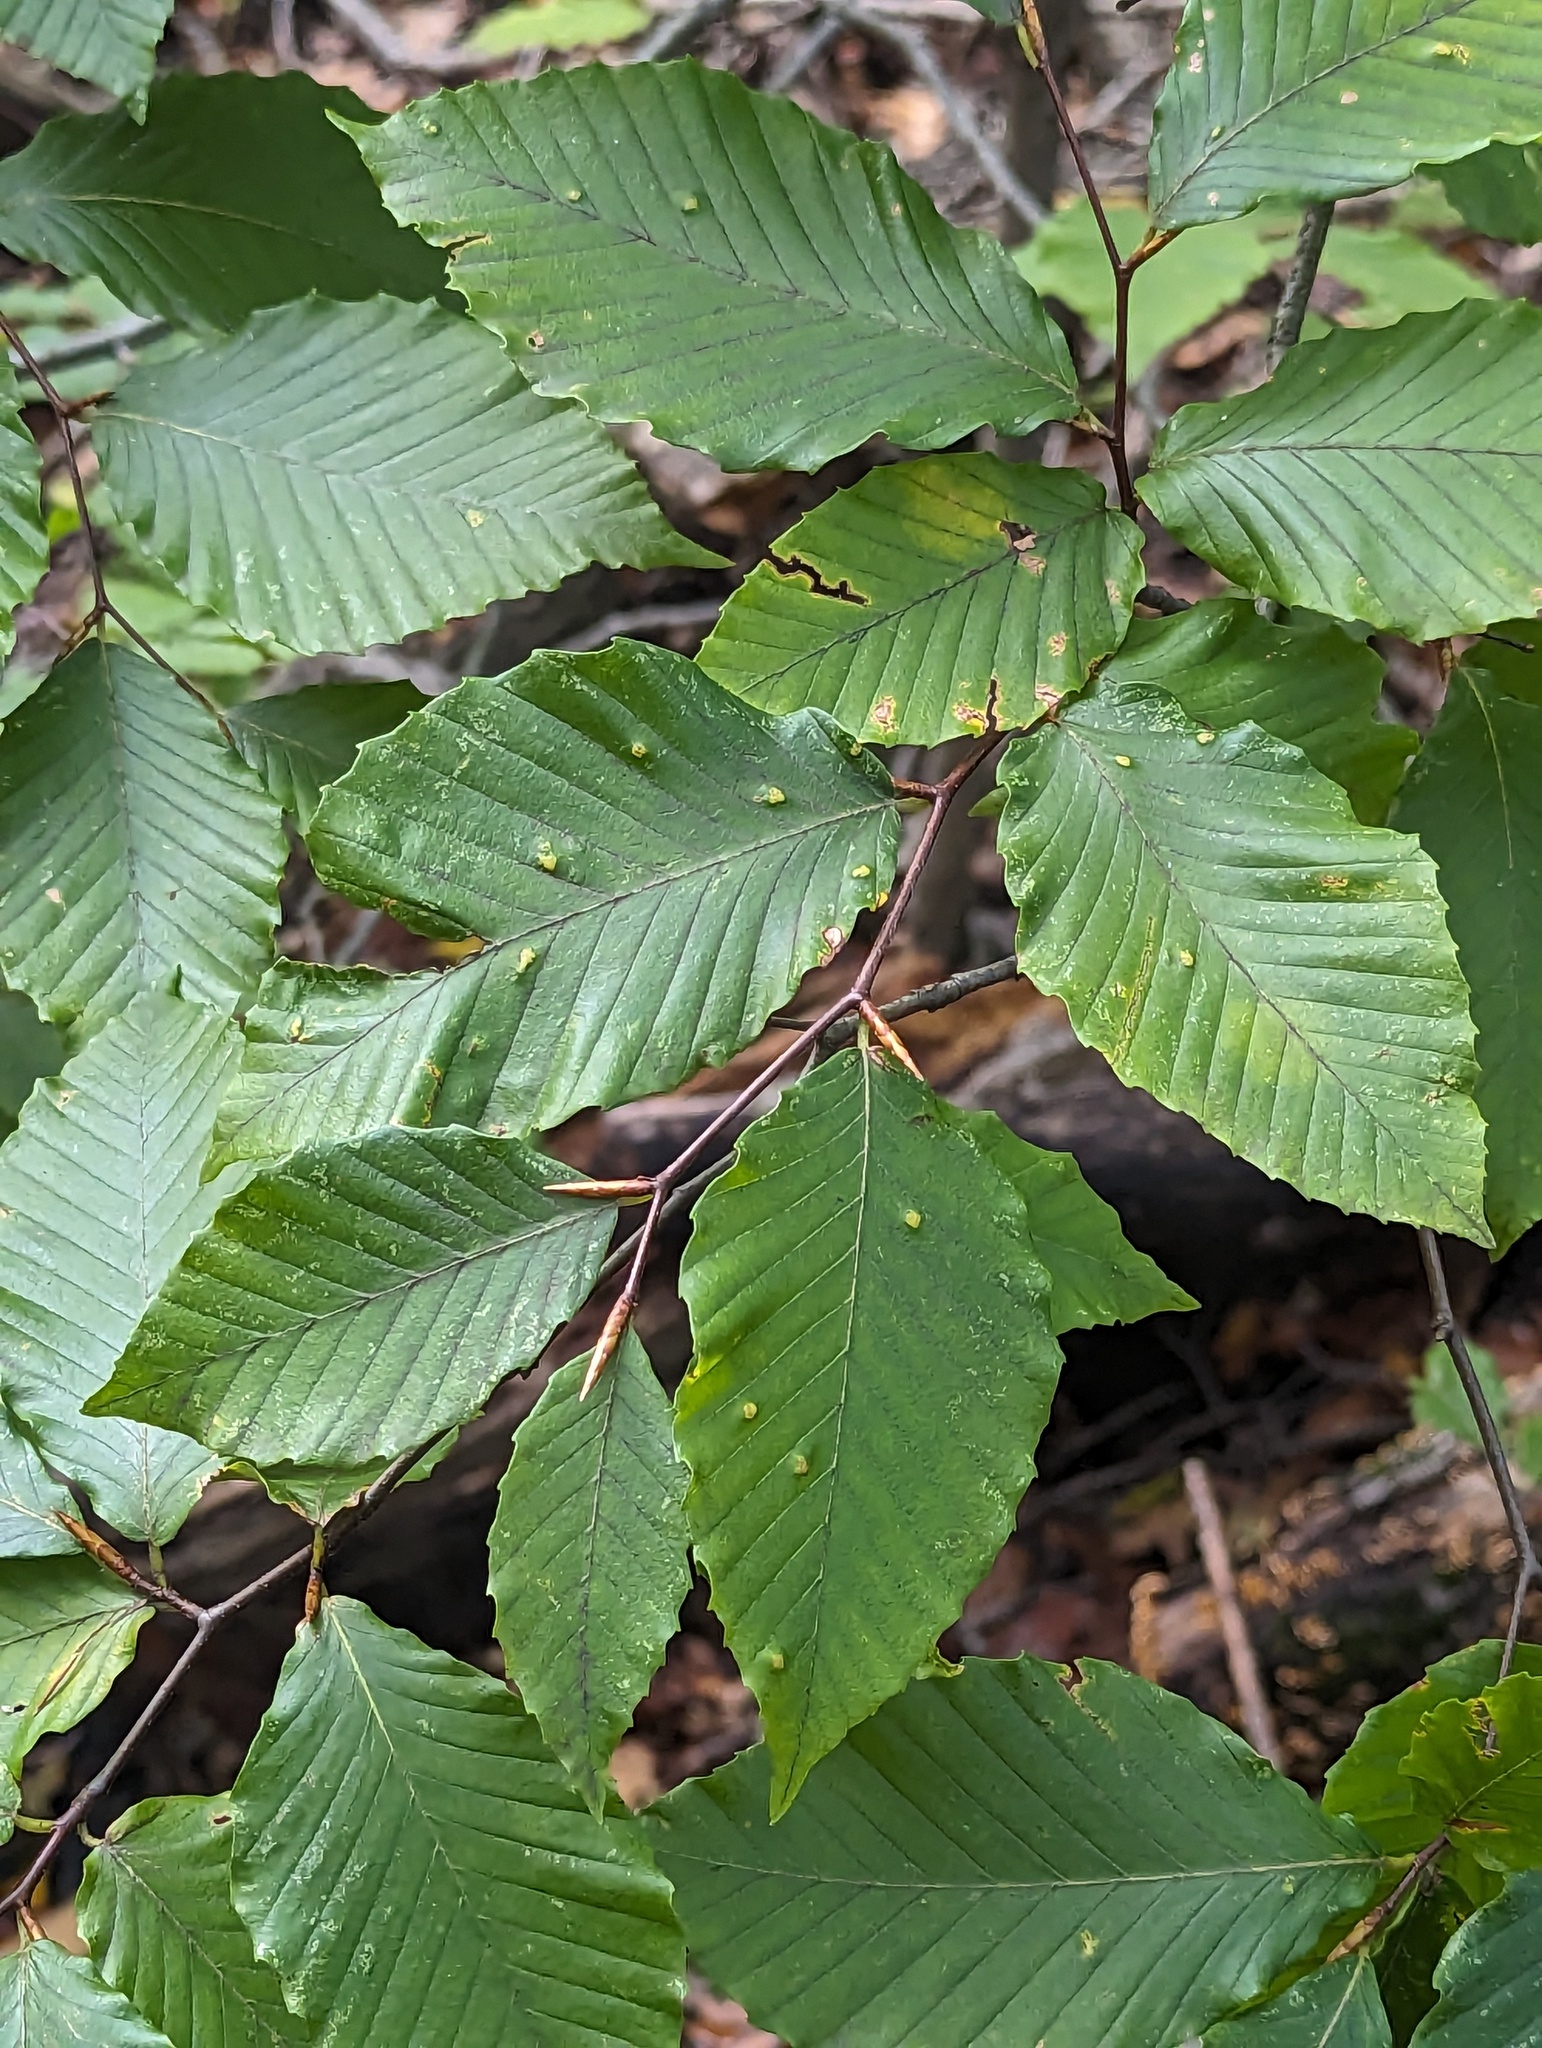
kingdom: Animalia
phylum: Arthropoda
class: Arachnida
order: Trombidiformes
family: Eriophyidae
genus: Acalitus
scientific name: Acalitus
